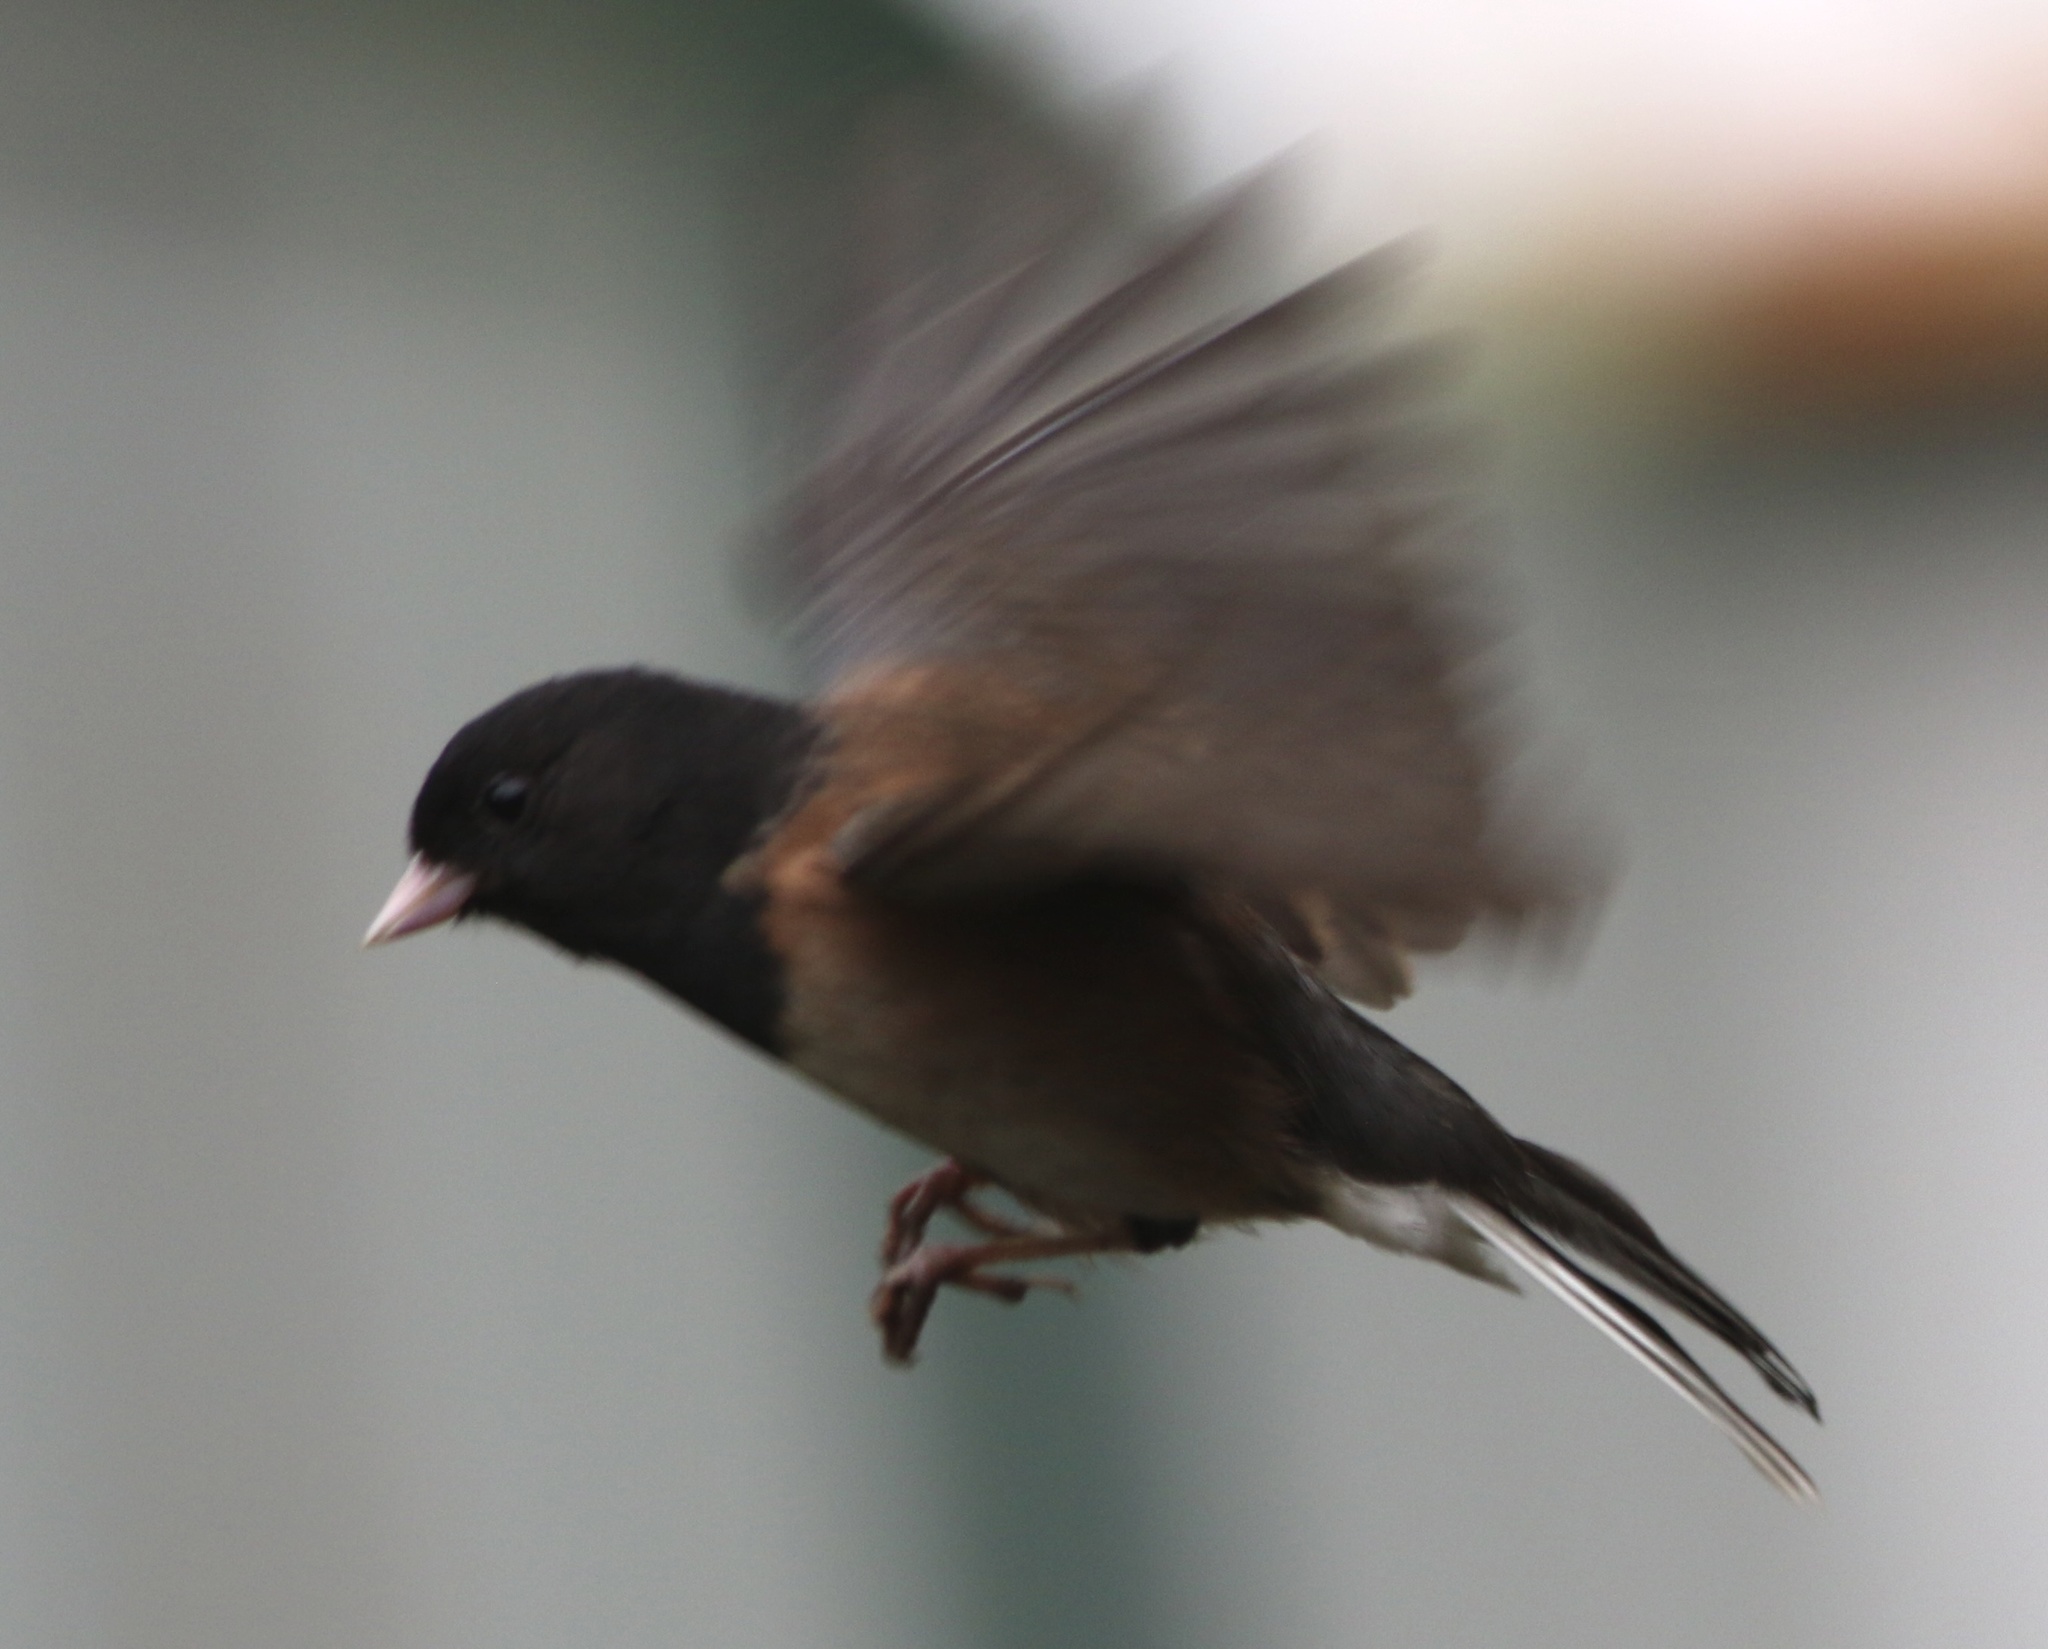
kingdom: Animalia
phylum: Chordata
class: Aves
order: Passeriformes
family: Passerellidae
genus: Junco
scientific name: Junco hyemalis
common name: Dark-eyed junco
